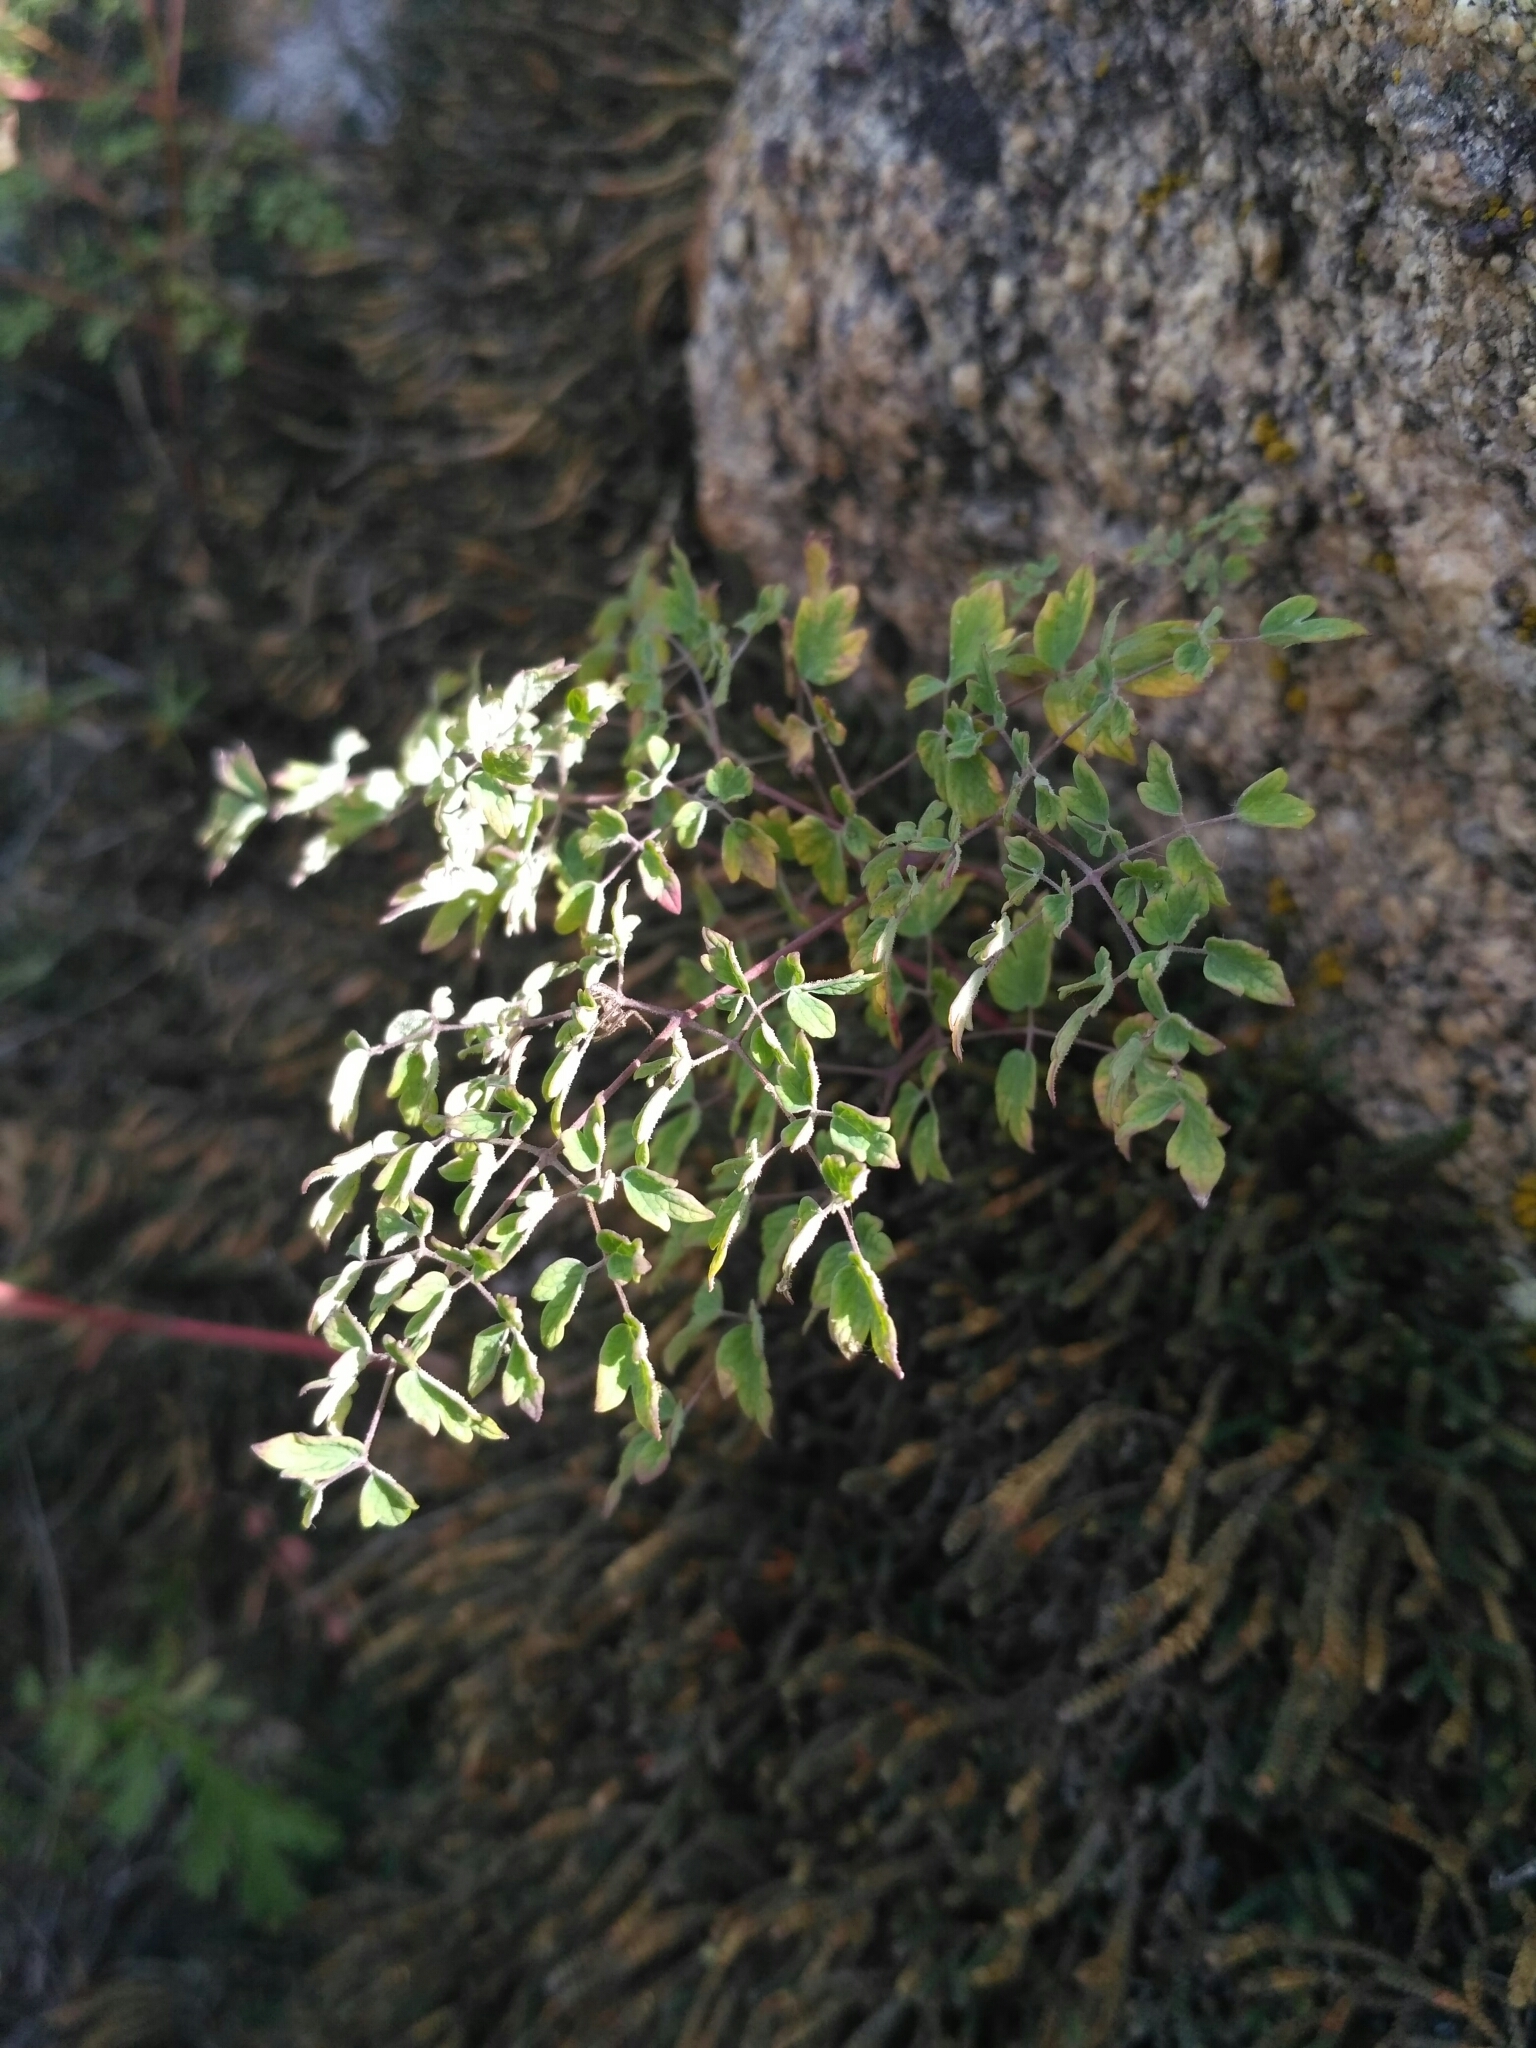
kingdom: Plantae
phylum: Tracheophyta
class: Magnoliopsida
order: Ranunculales
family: Ranunculaceae
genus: Thalictrum
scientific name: Thalictrum foetidum
